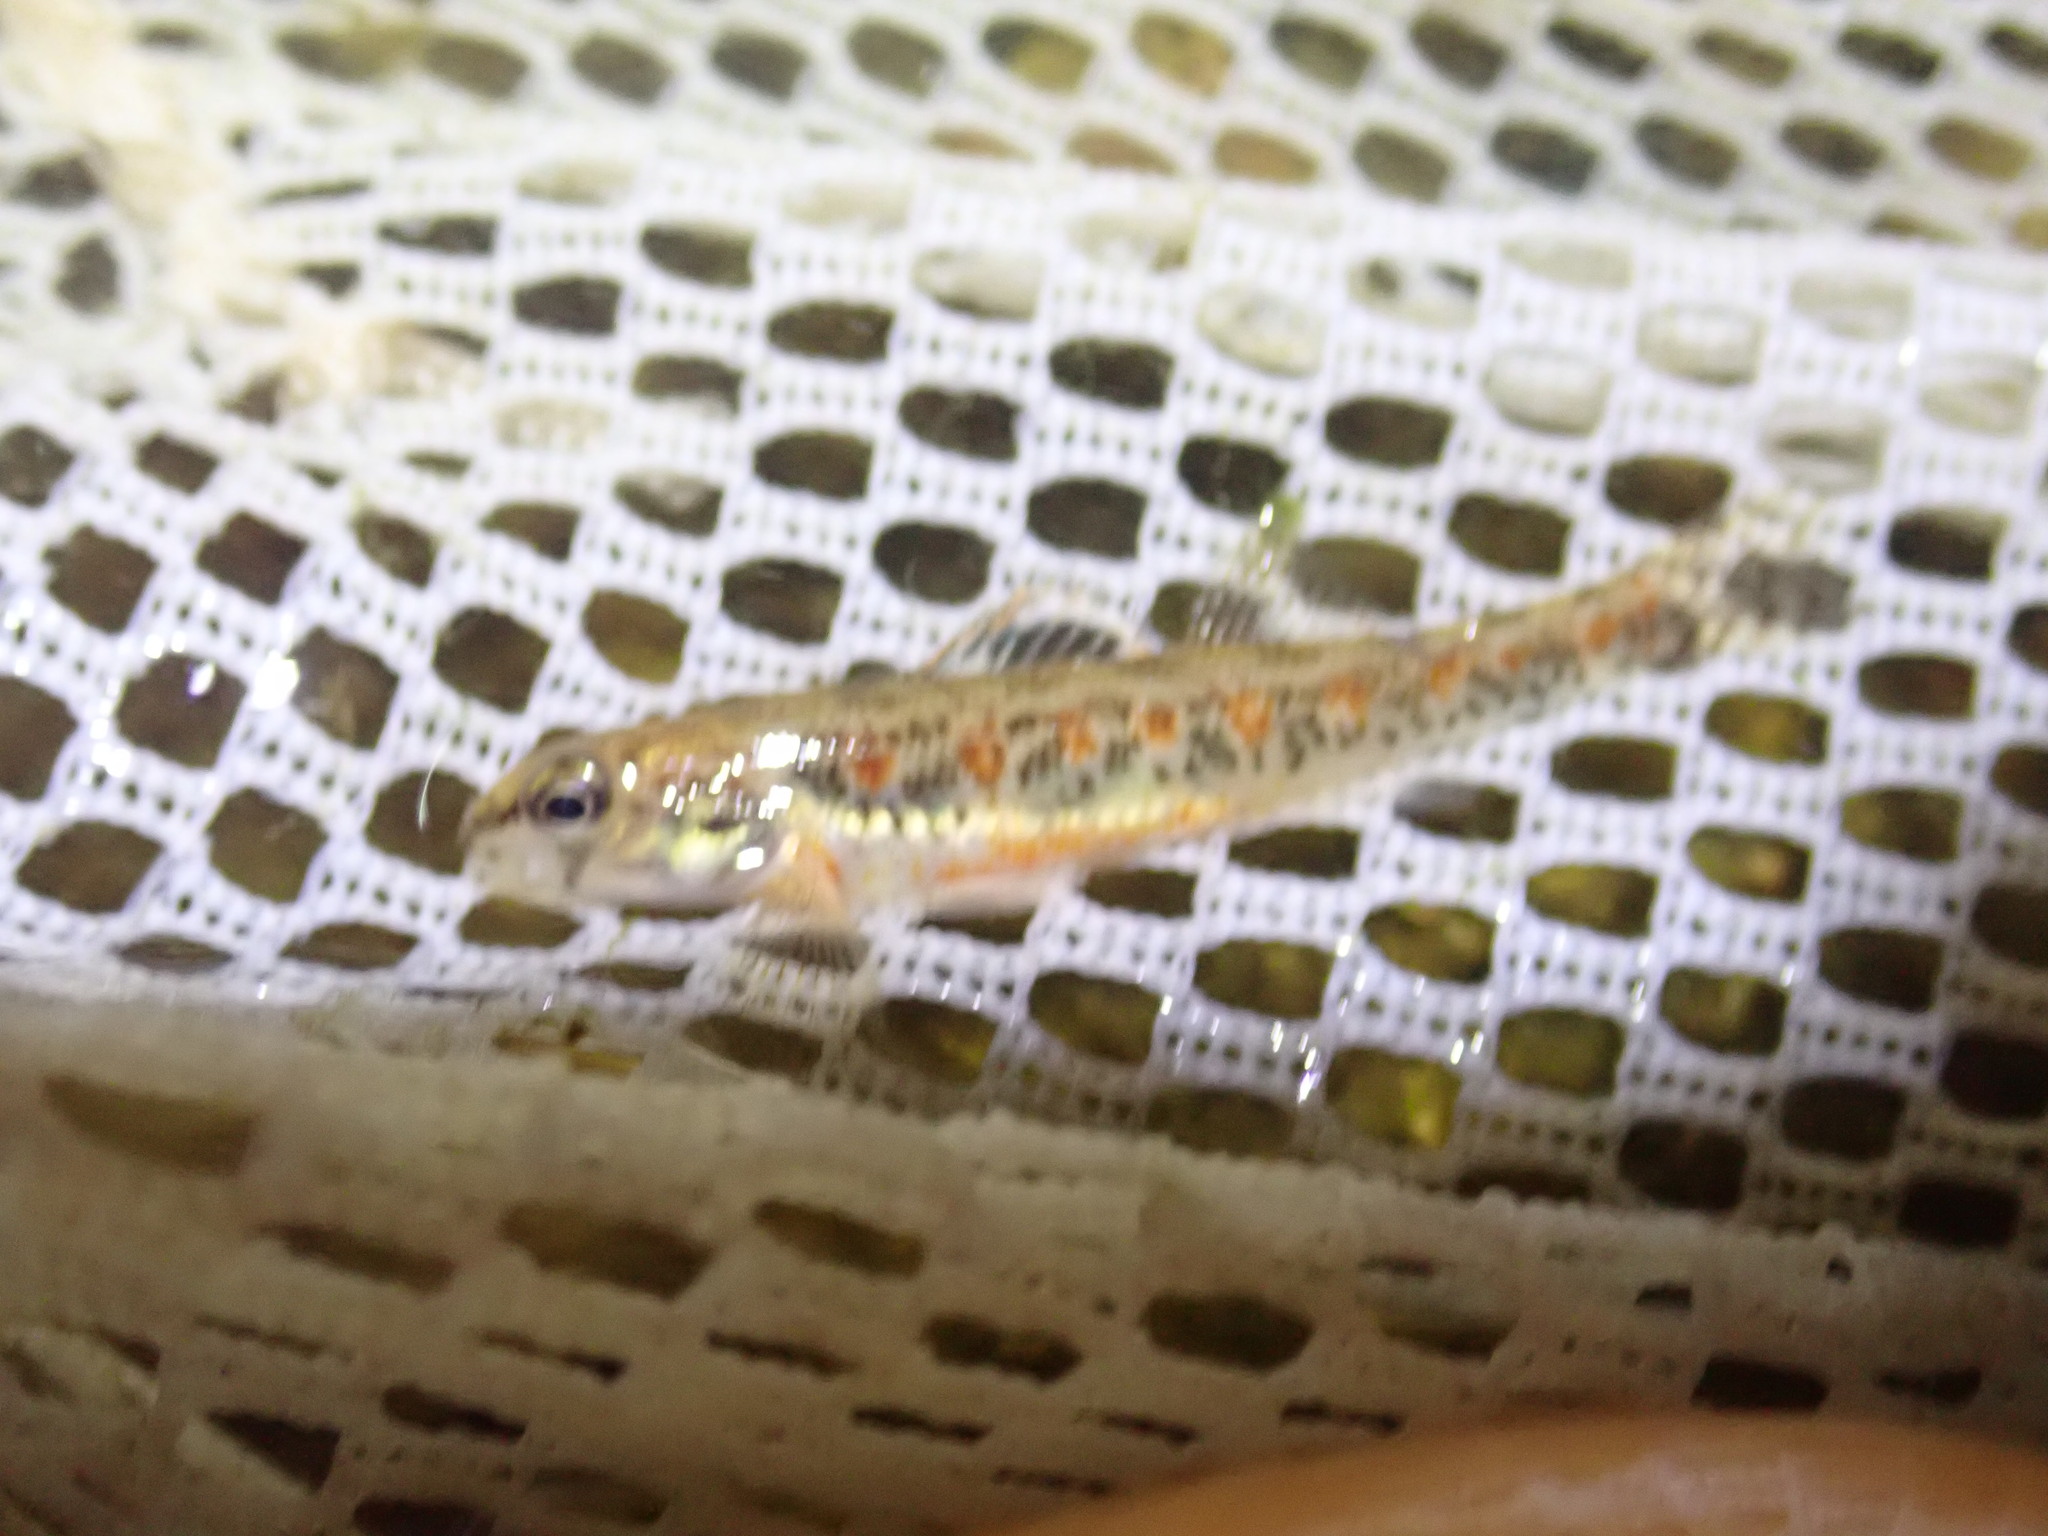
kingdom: Animalia
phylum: Chordata
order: Perciformes
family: Percidae
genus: Etheostoma
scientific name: Etheostoma exile
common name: Iowa darter
